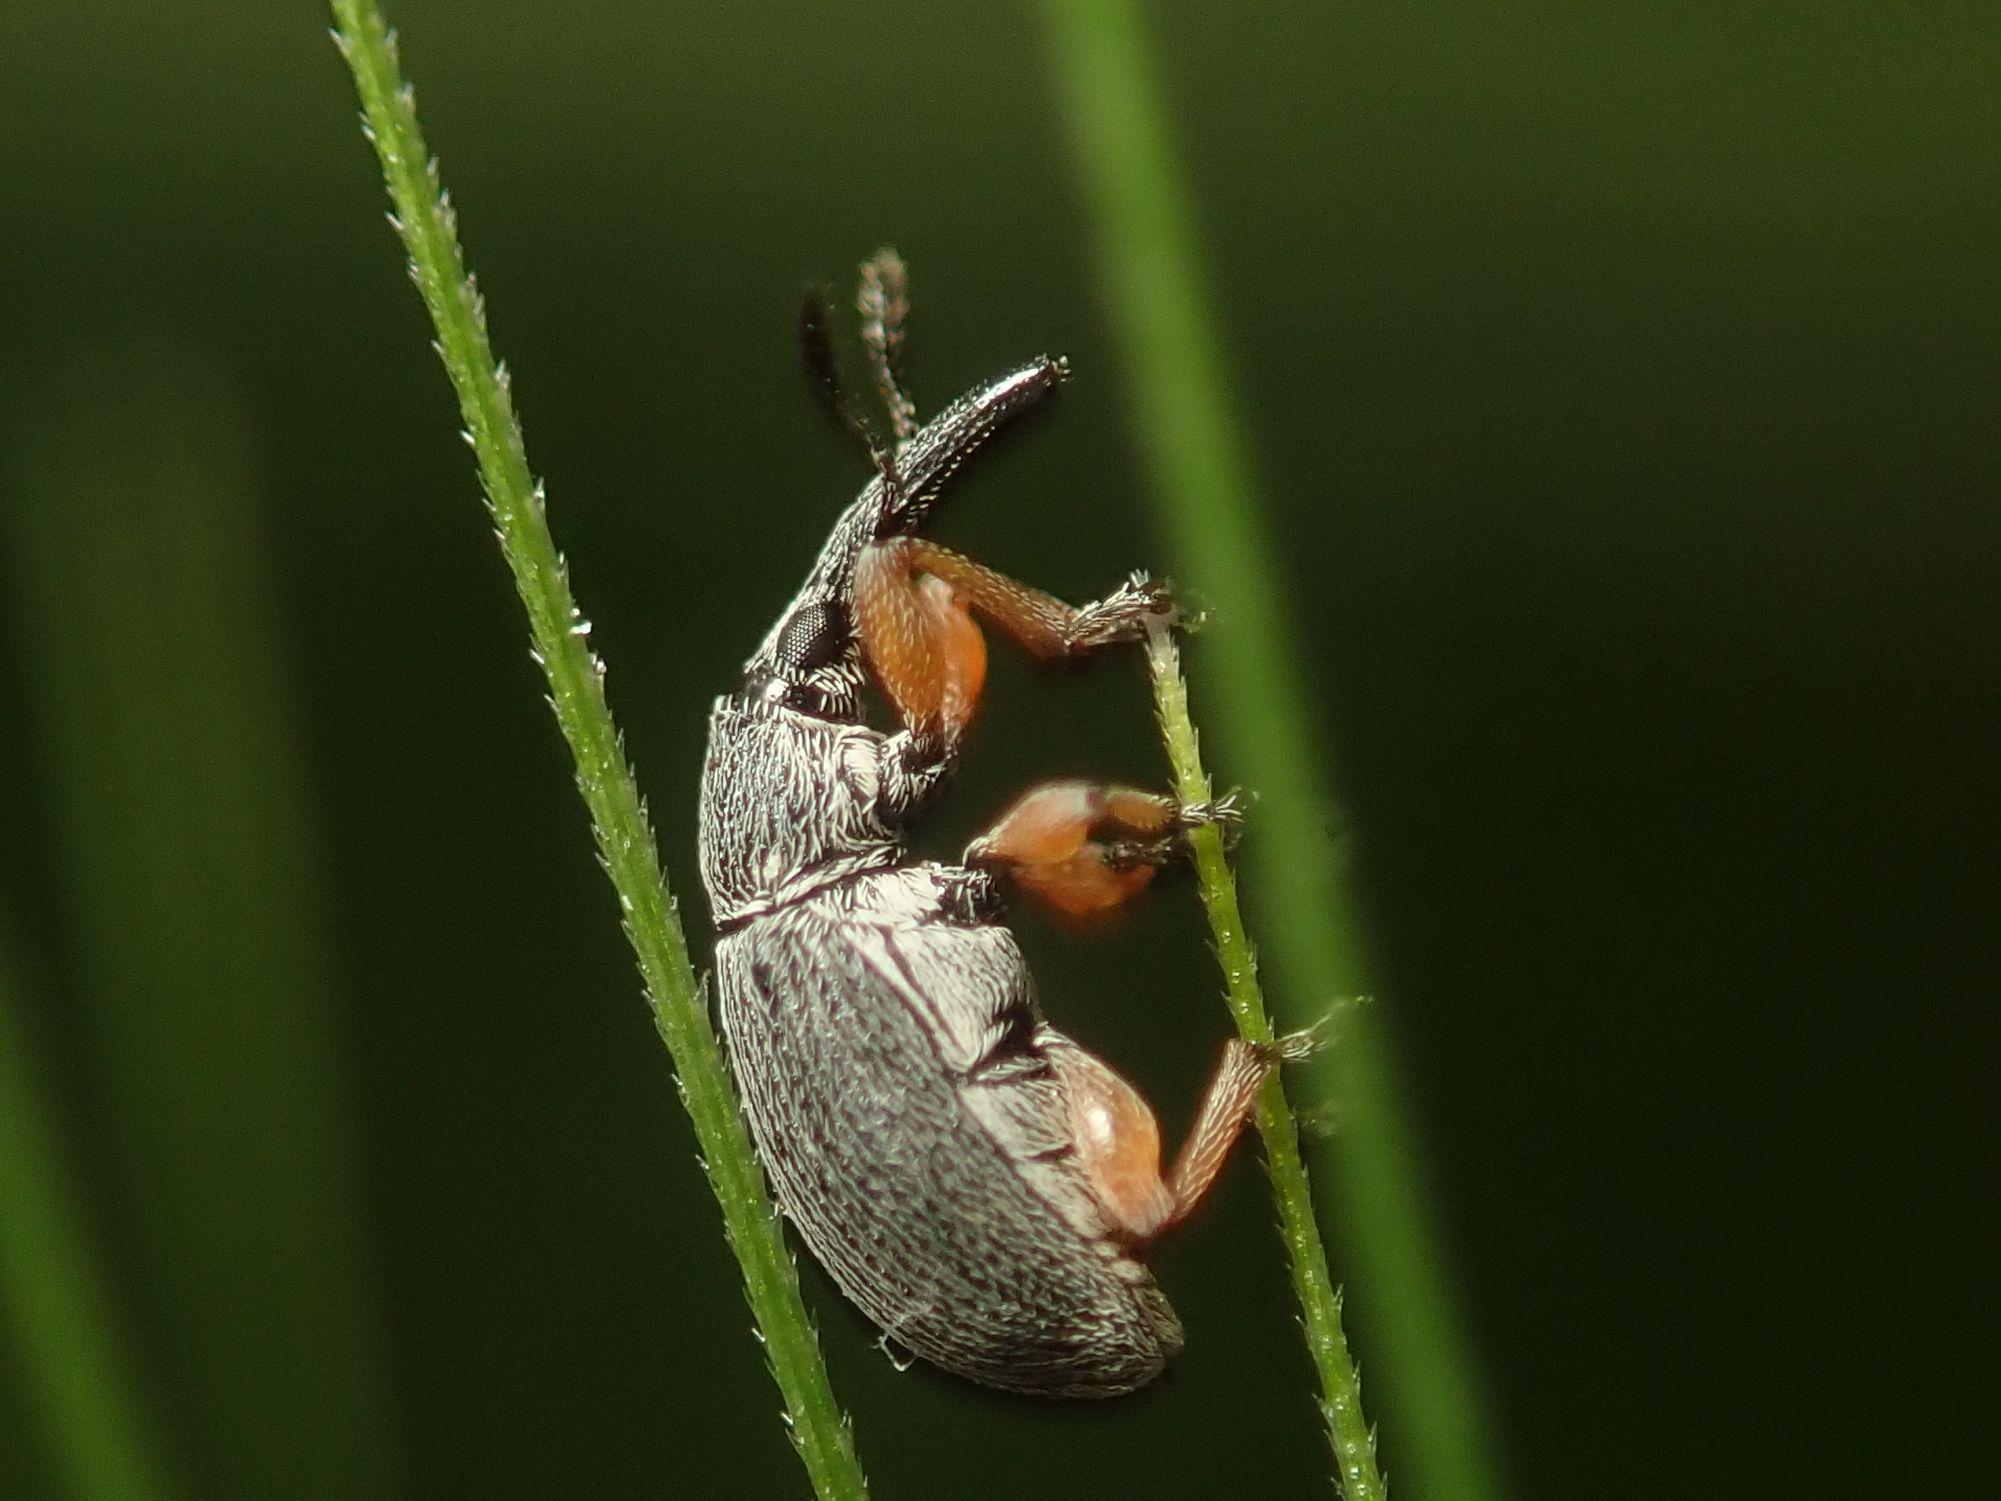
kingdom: Animalia
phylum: Arthropoda
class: Insecta
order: Coleoptera
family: Brentidae
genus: Rhopalapion
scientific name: Rhopalapion longirostre
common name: Hollyhock weevil
